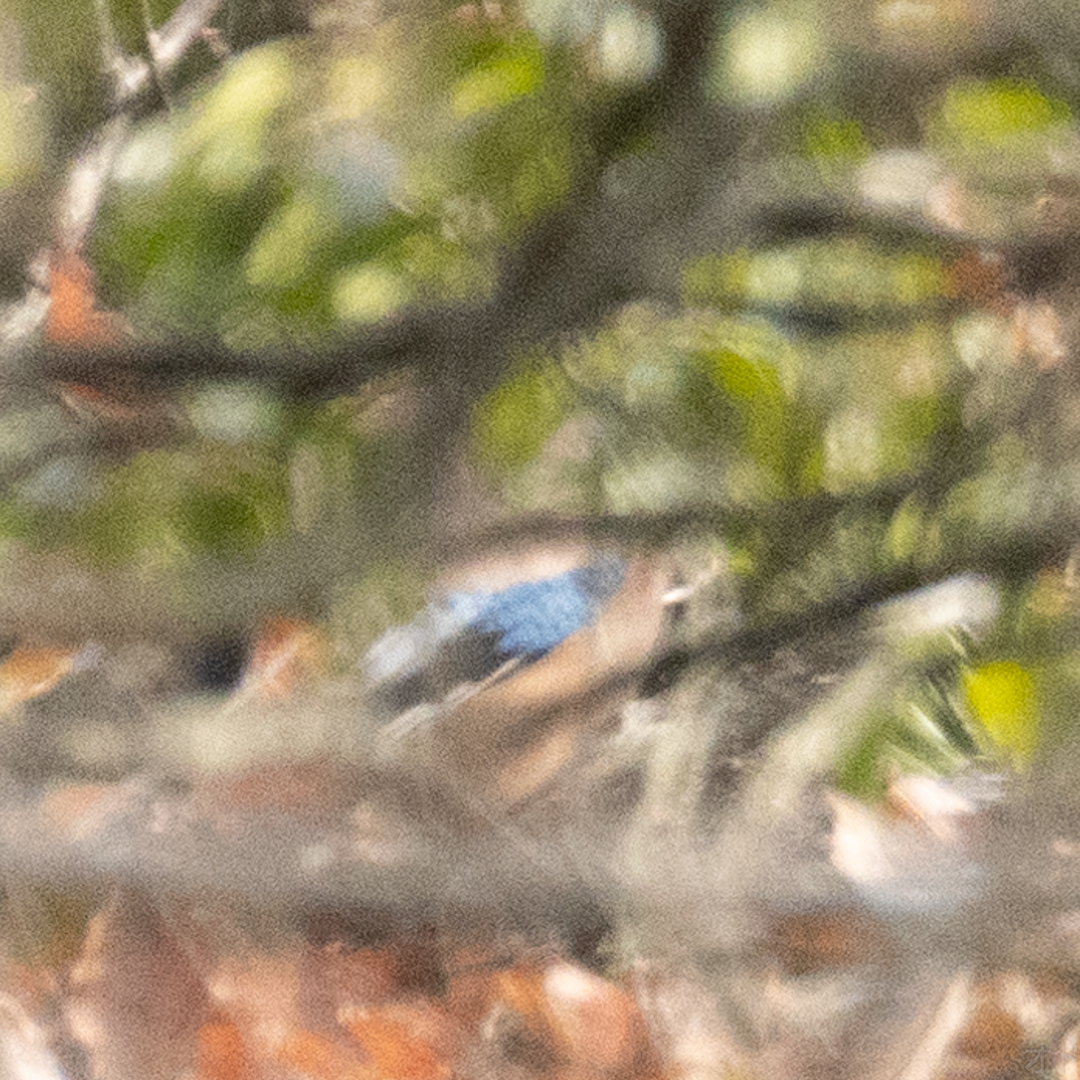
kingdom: Animalia
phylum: Chordata
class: Aves
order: Passeriformes
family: Corvidae
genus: Garrulus
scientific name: Garrulus glandarius
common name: Eurasian jay
